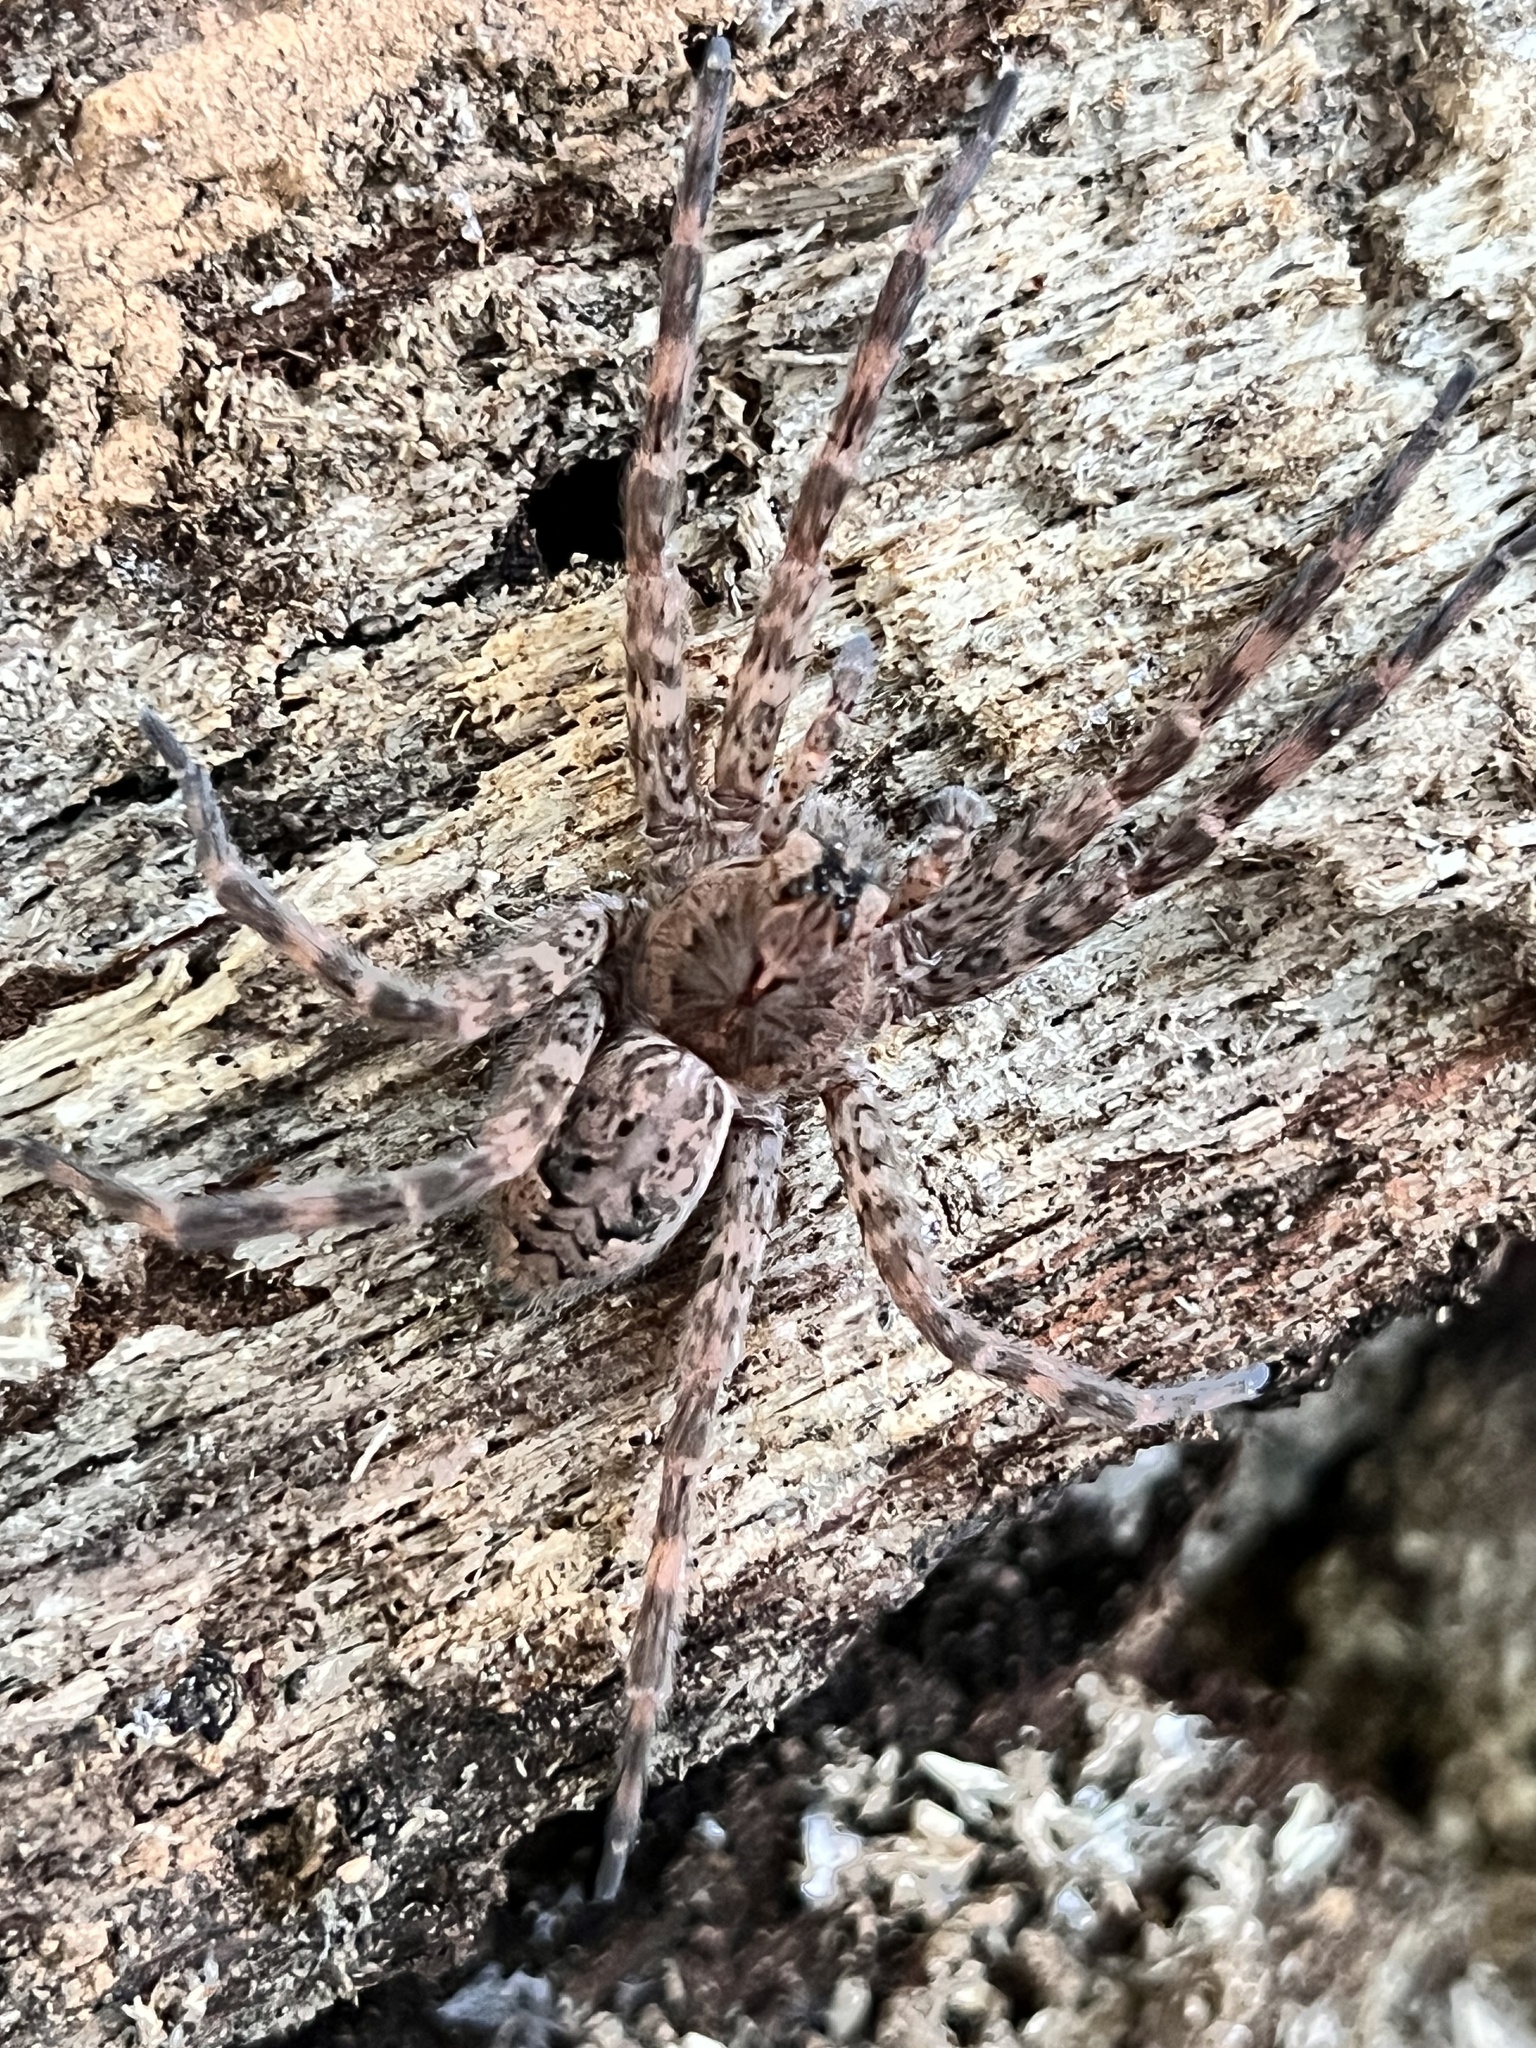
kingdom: Animalia
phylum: Arthropoda
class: Arachnida
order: Araneae
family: Pisauridae
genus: Dolomedes
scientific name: Dolomedes tenebrosus
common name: Dark fishing spider
